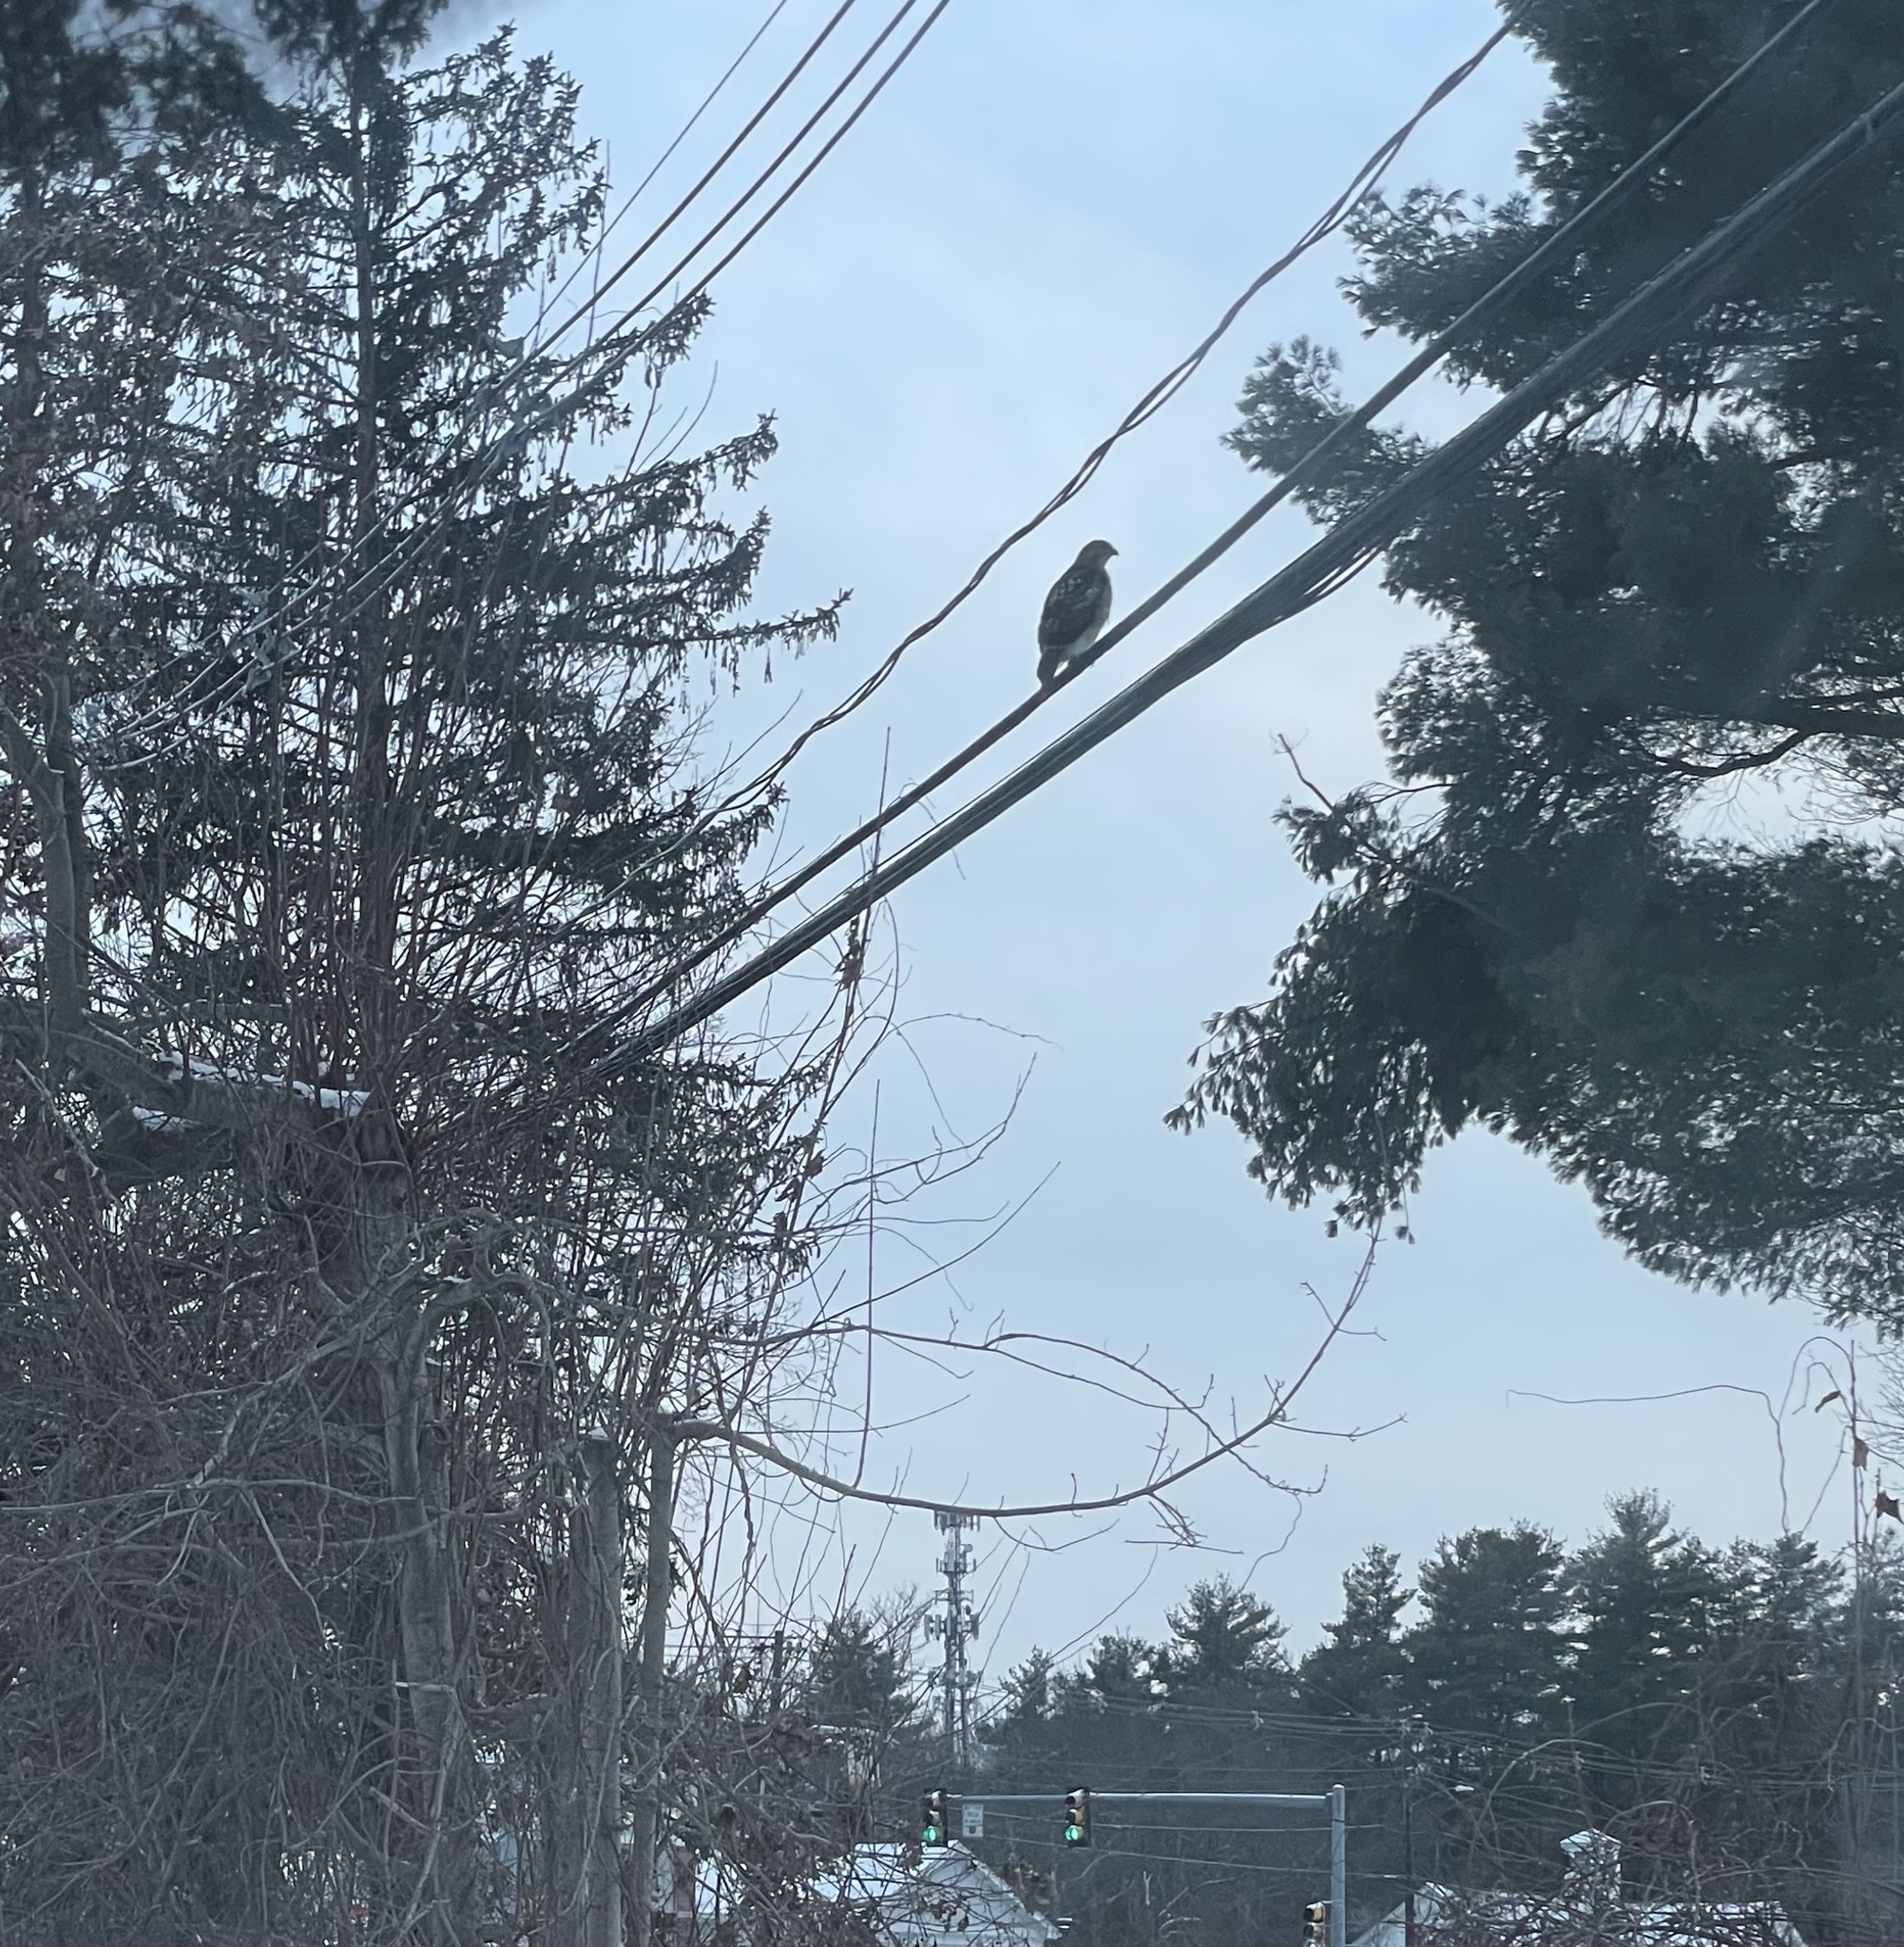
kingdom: Animalia
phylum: Chordata
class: Aves
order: Accipitriformes
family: Accipitridae
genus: Buteo
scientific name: Buteo jamaicensis
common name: Red-tailed hawk
